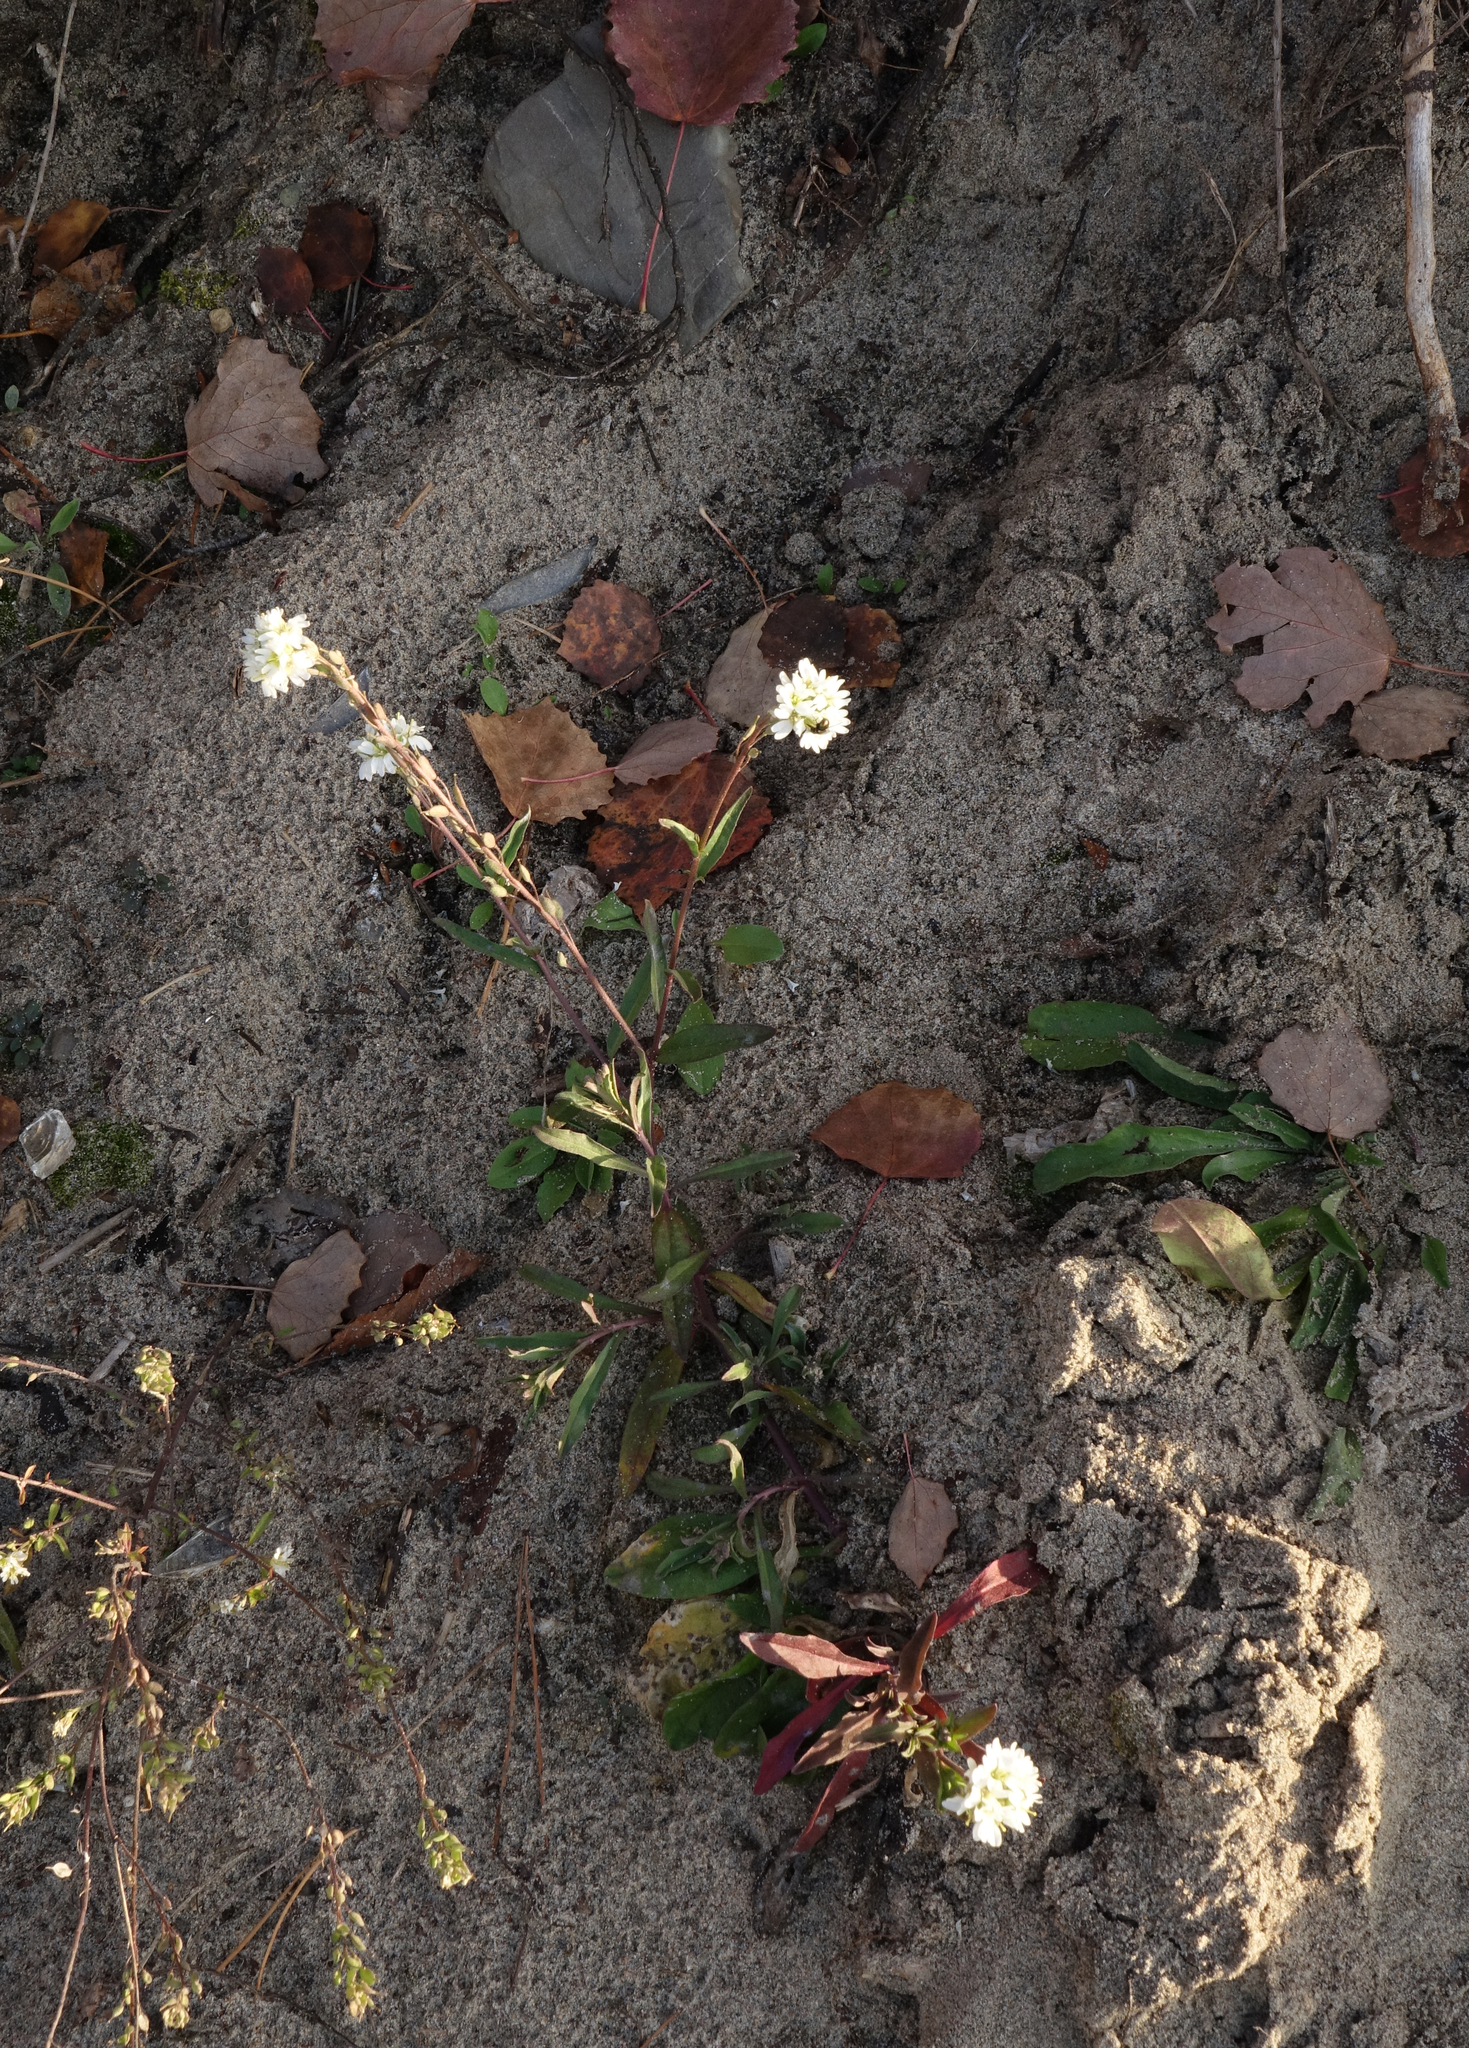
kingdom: Plantae
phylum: Tracheophyta
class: Magnoliopsida
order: Brassicales
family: Brassicaceae
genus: Berteroa
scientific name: Berteroa incana
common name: Hoary alison
